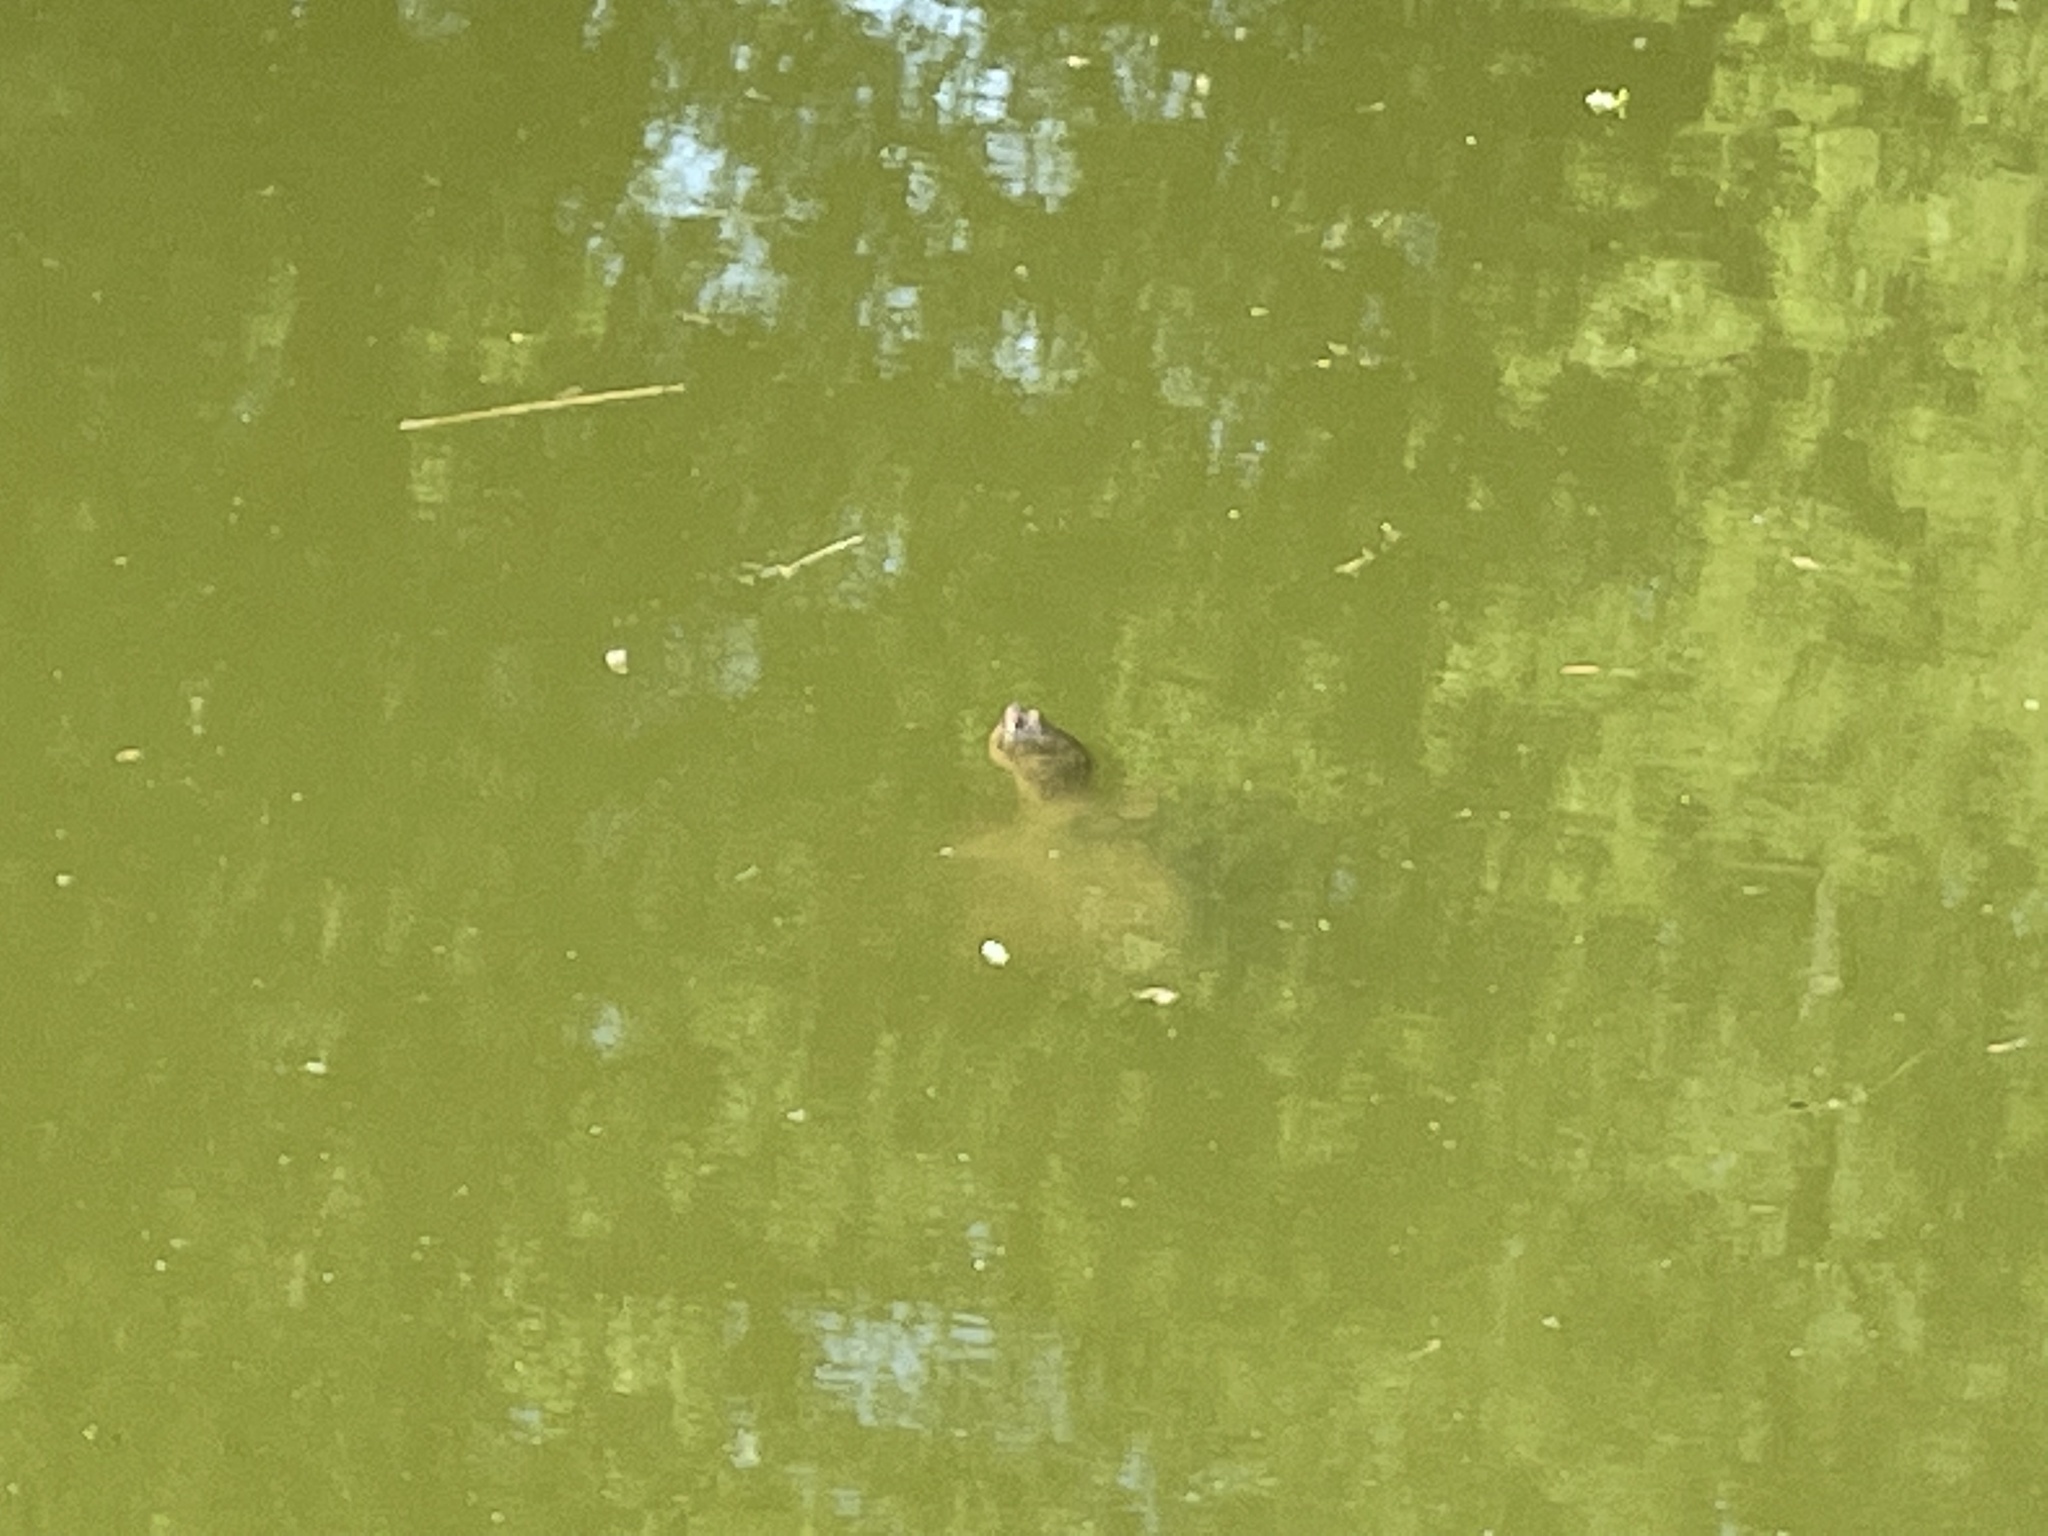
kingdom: Animalia
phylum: Chordata
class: Testudines
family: Chelydridae
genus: Chelydra
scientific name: Chelydra serpentina
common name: Common snapping turtle
